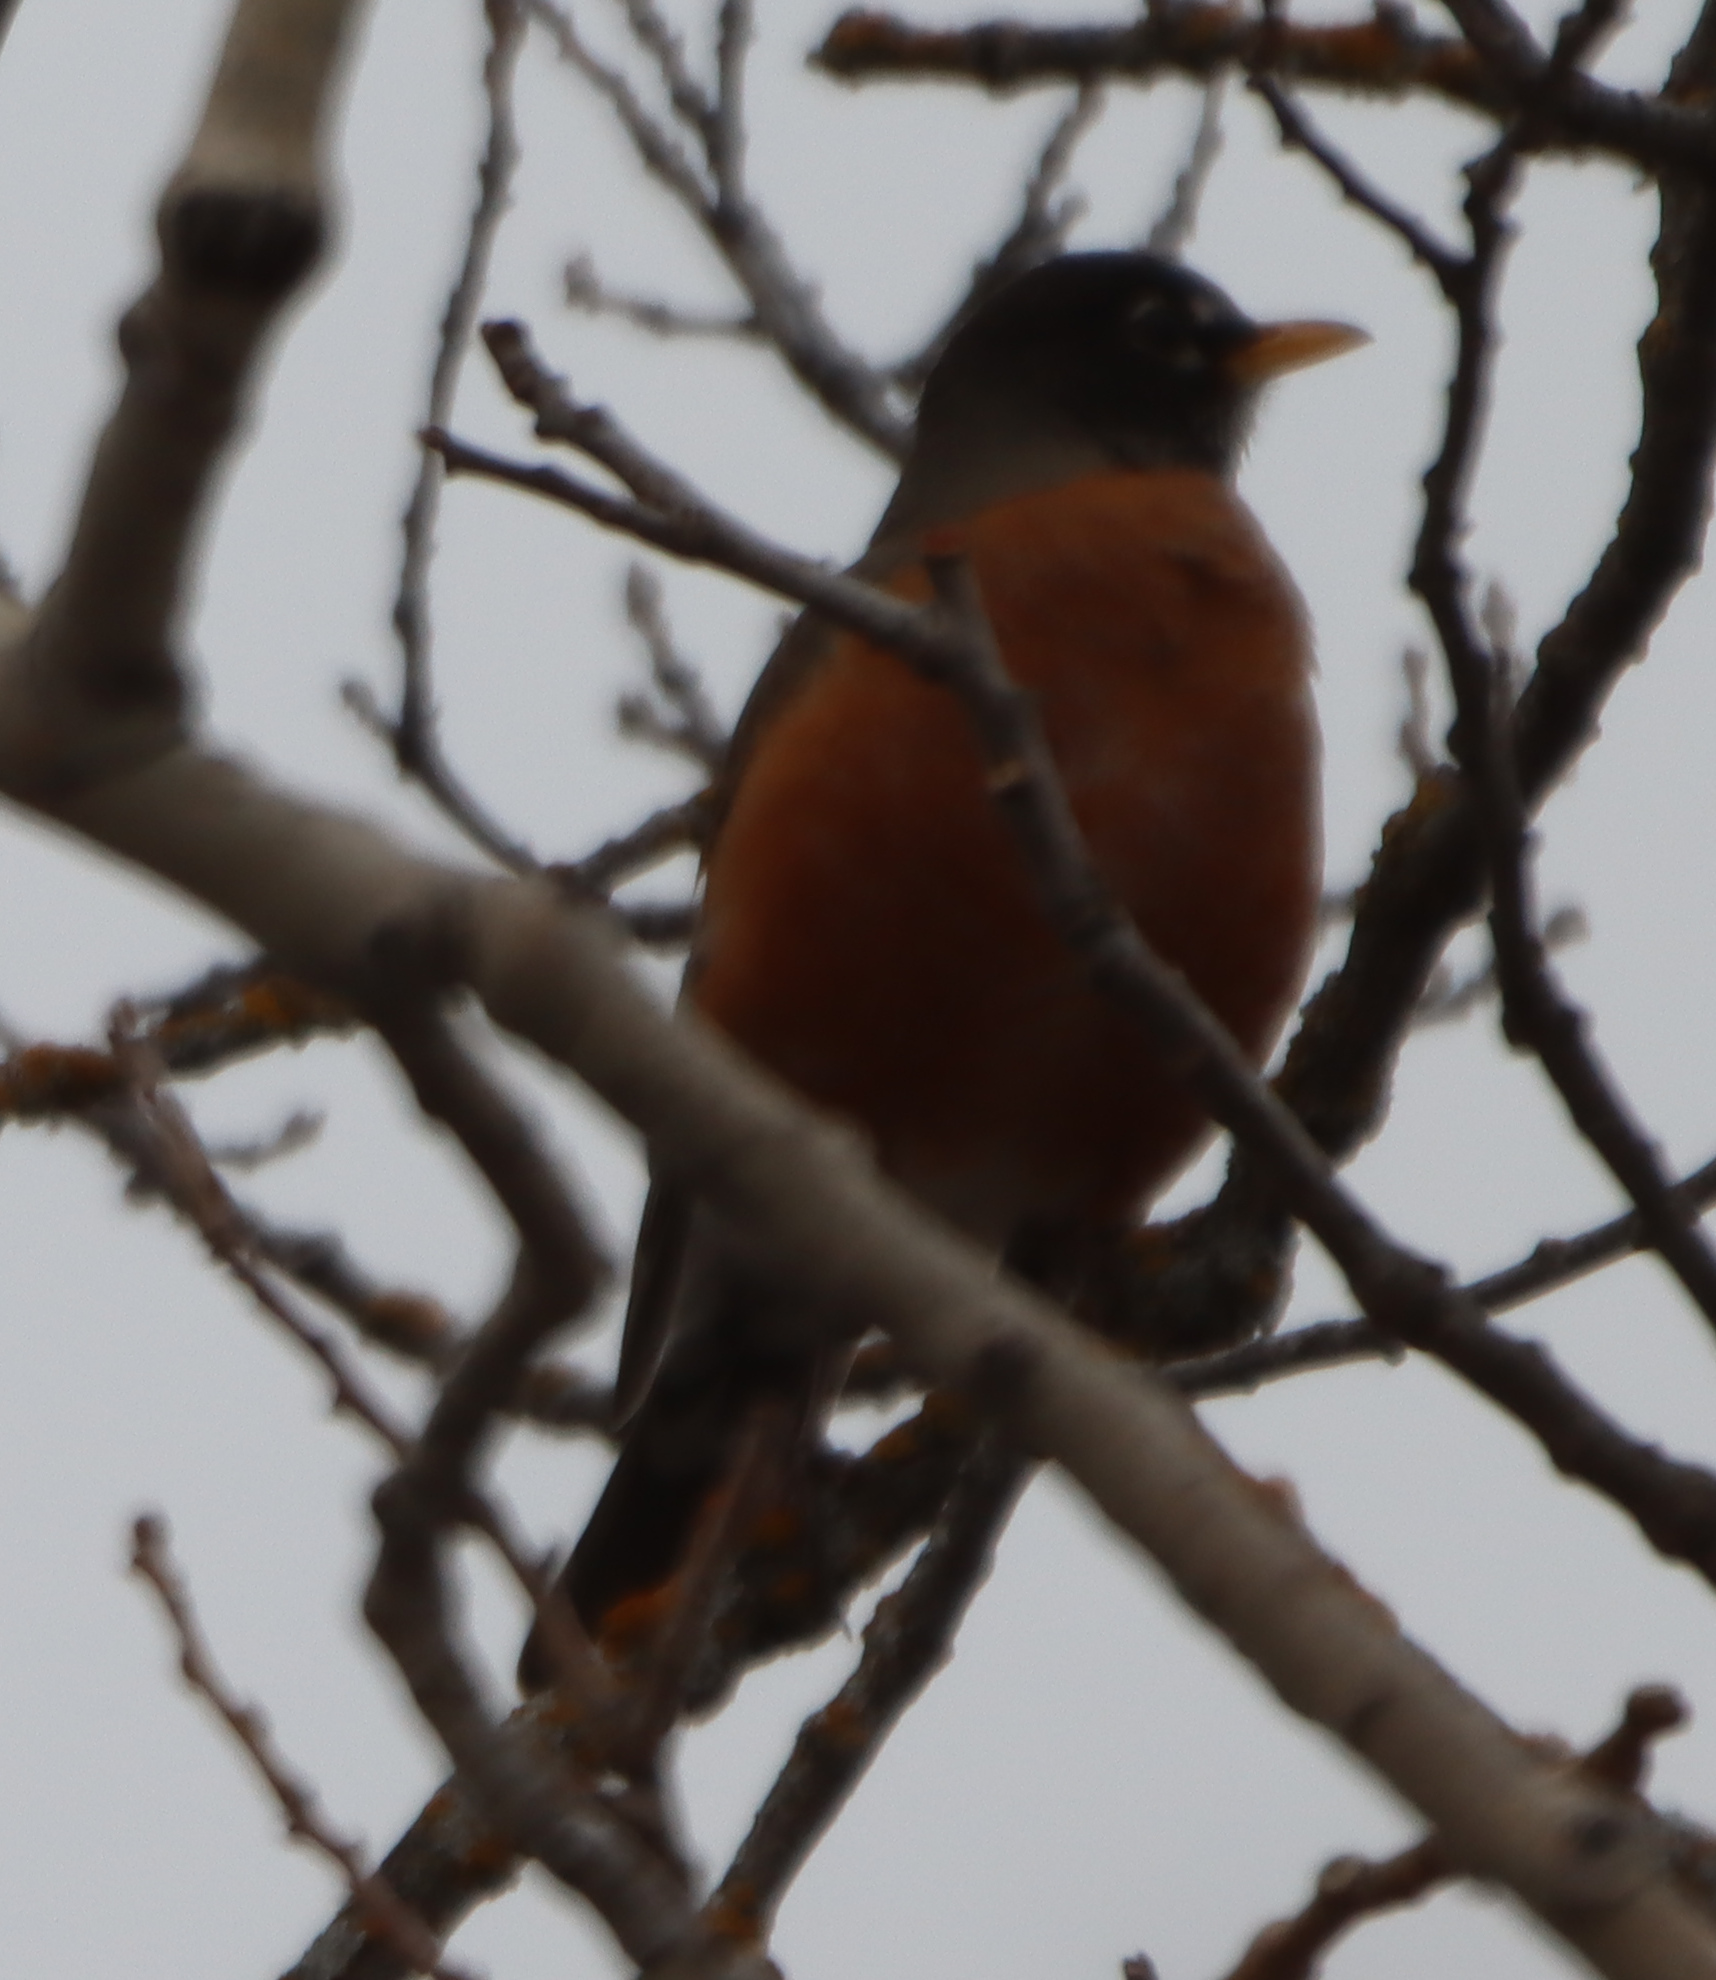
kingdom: Animalia
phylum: Chordata
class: Aves
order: Passeriformes
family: Turdidae
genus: Turdus
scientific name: Turdus migratorius
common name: American robin
